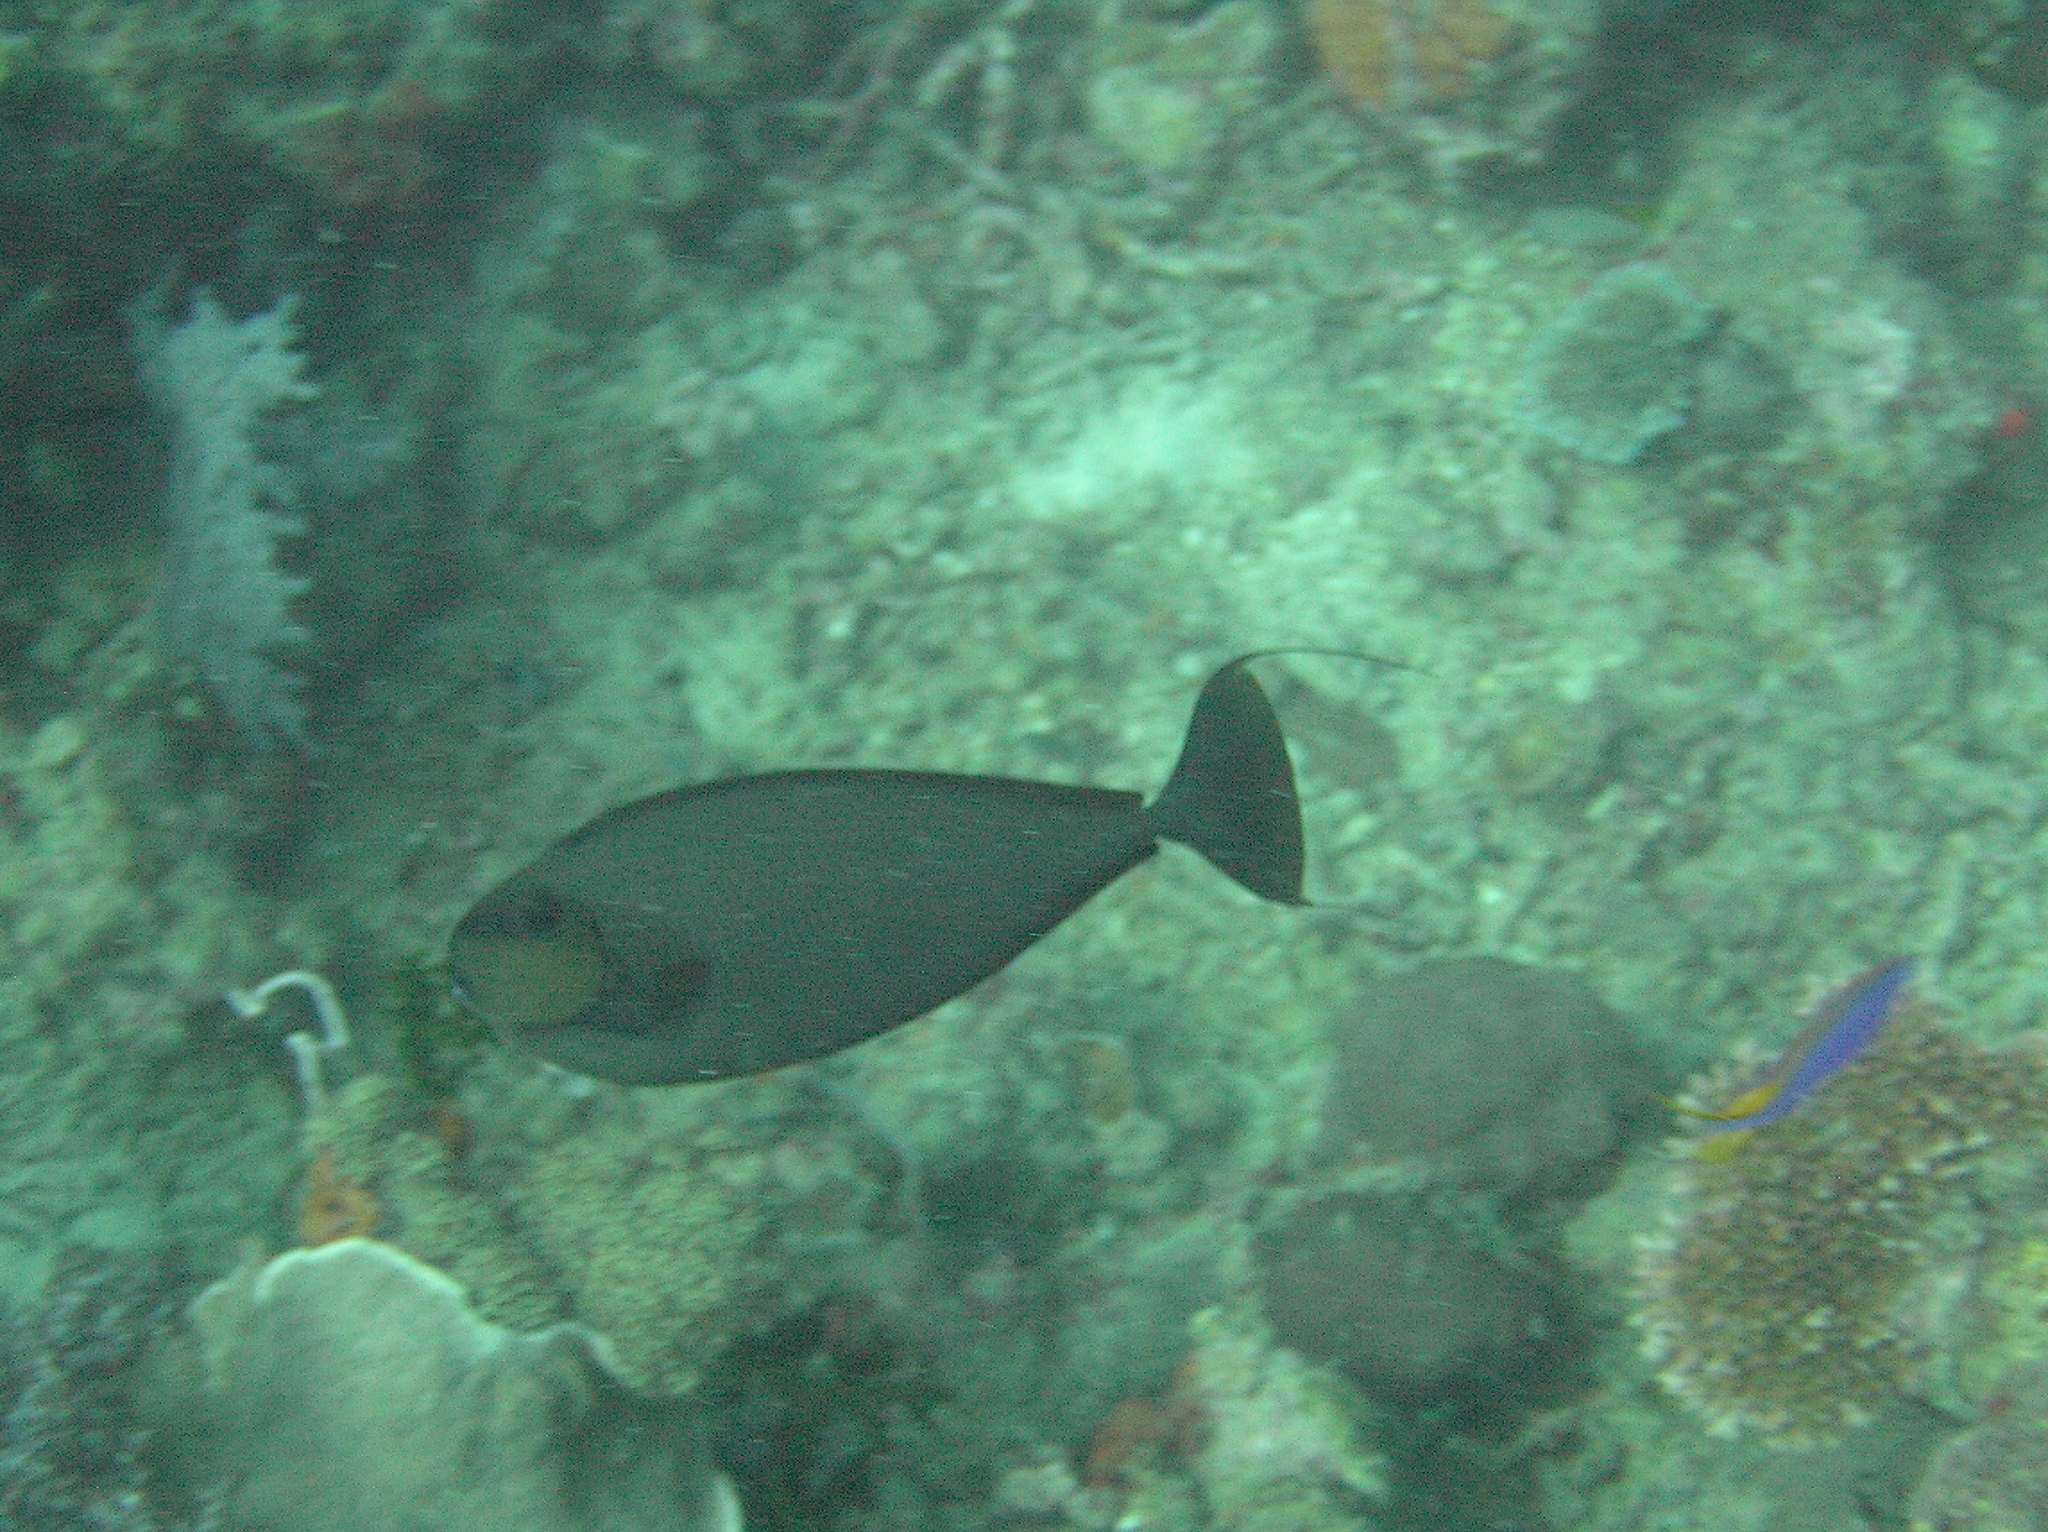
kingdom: Animalia
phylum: Chordata
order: Perciformes
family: Acanthuridae
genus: Naso
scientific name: Naso vlamingii
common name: Big-nose unicorn
